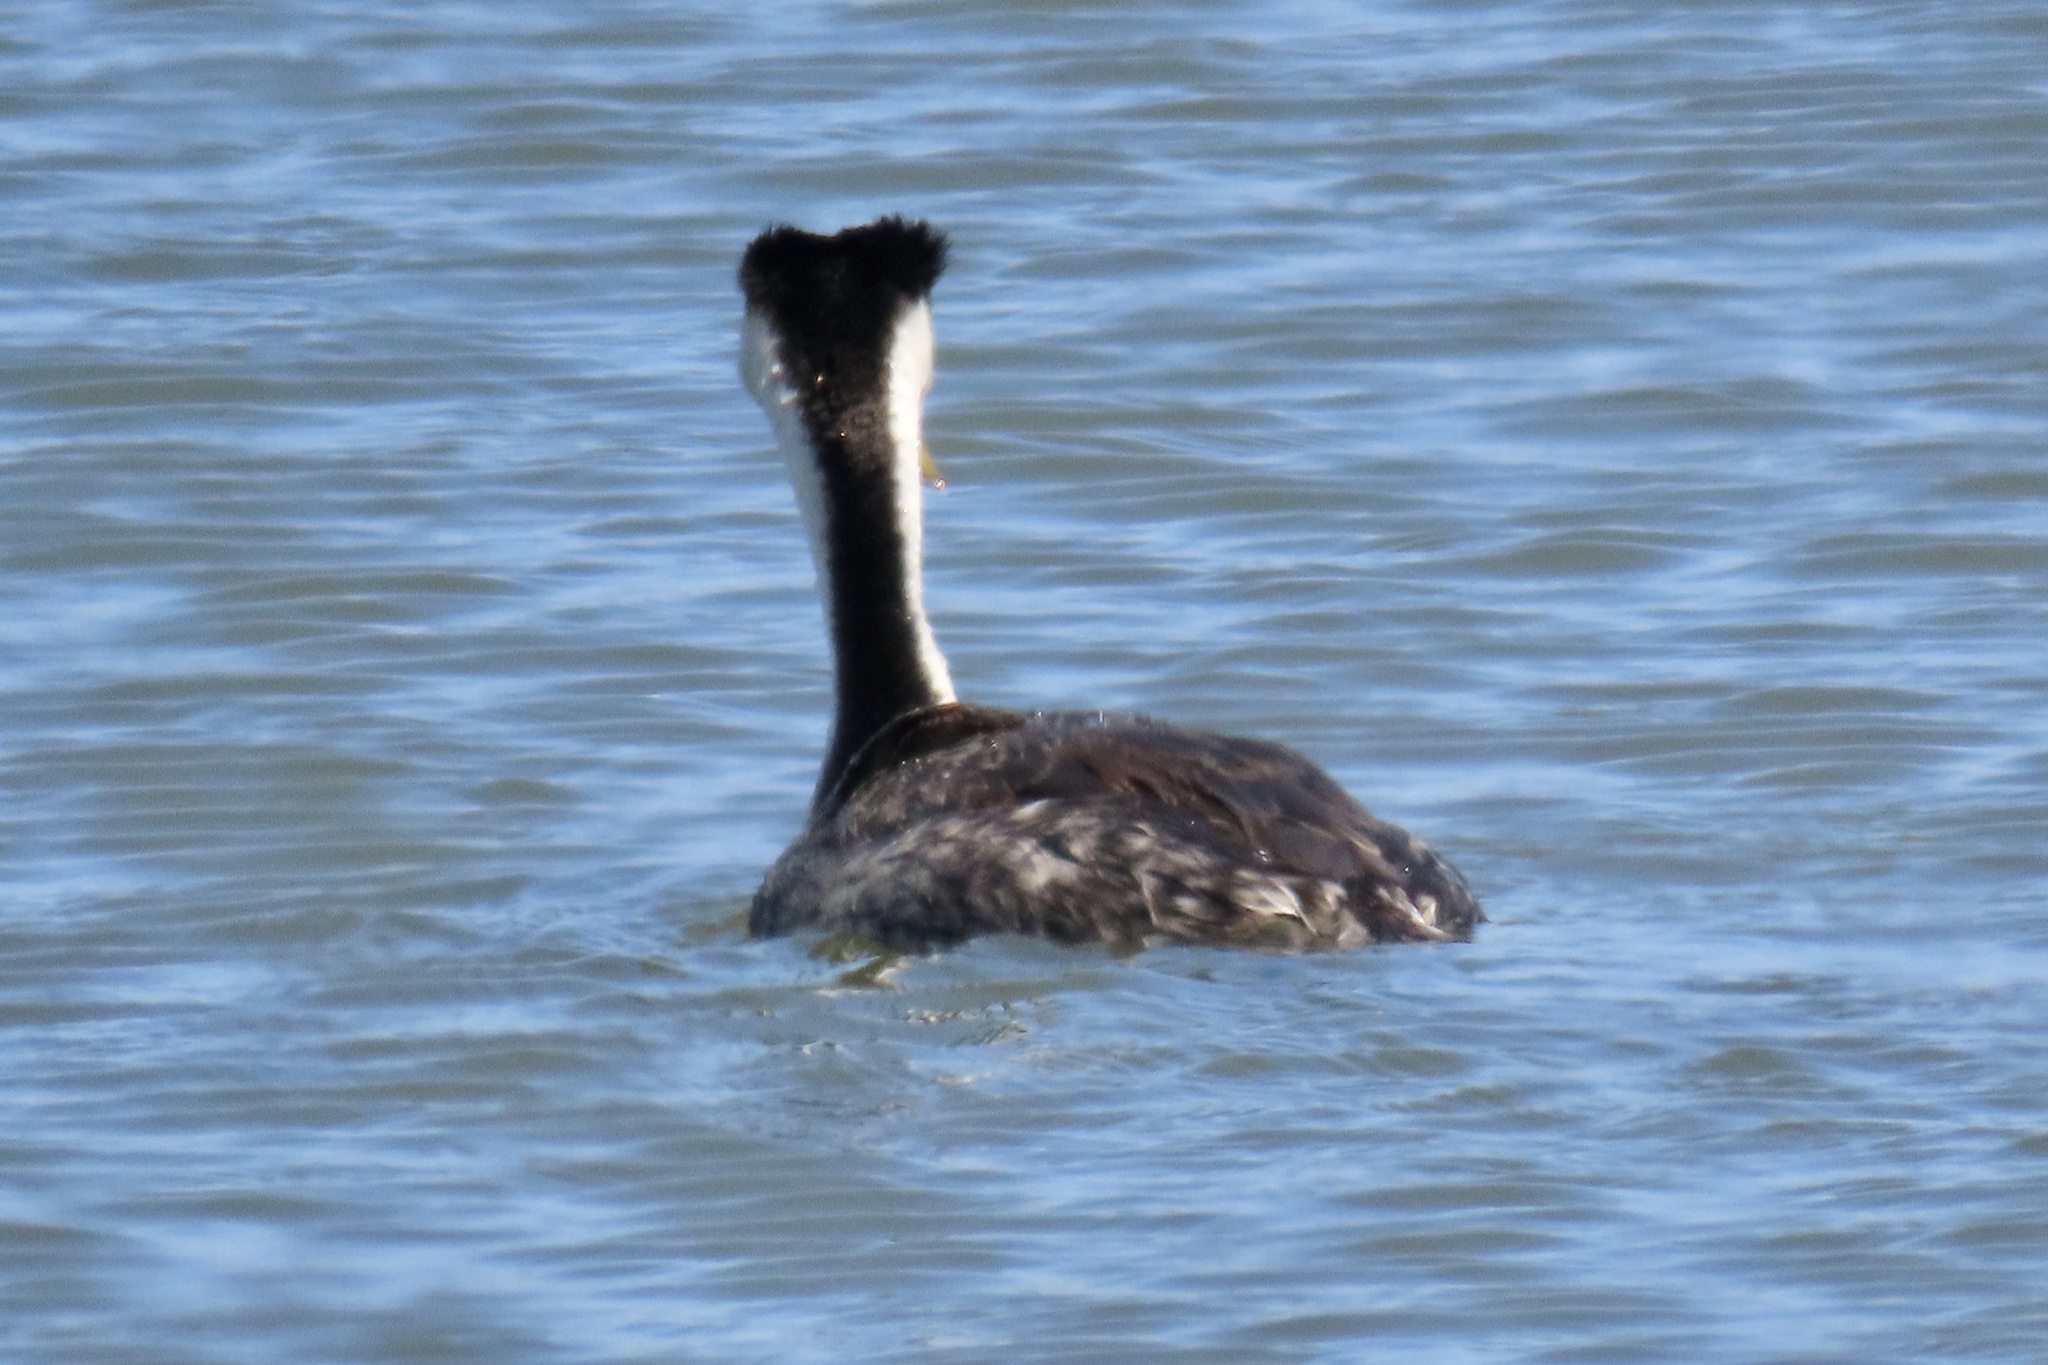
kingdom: Animalia
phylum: Chordata
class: Aves
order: Podicipediformes
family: Podicipedidae
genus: Aechmophorus
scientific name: Aechmophorus occidentalis
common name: Western grebe
